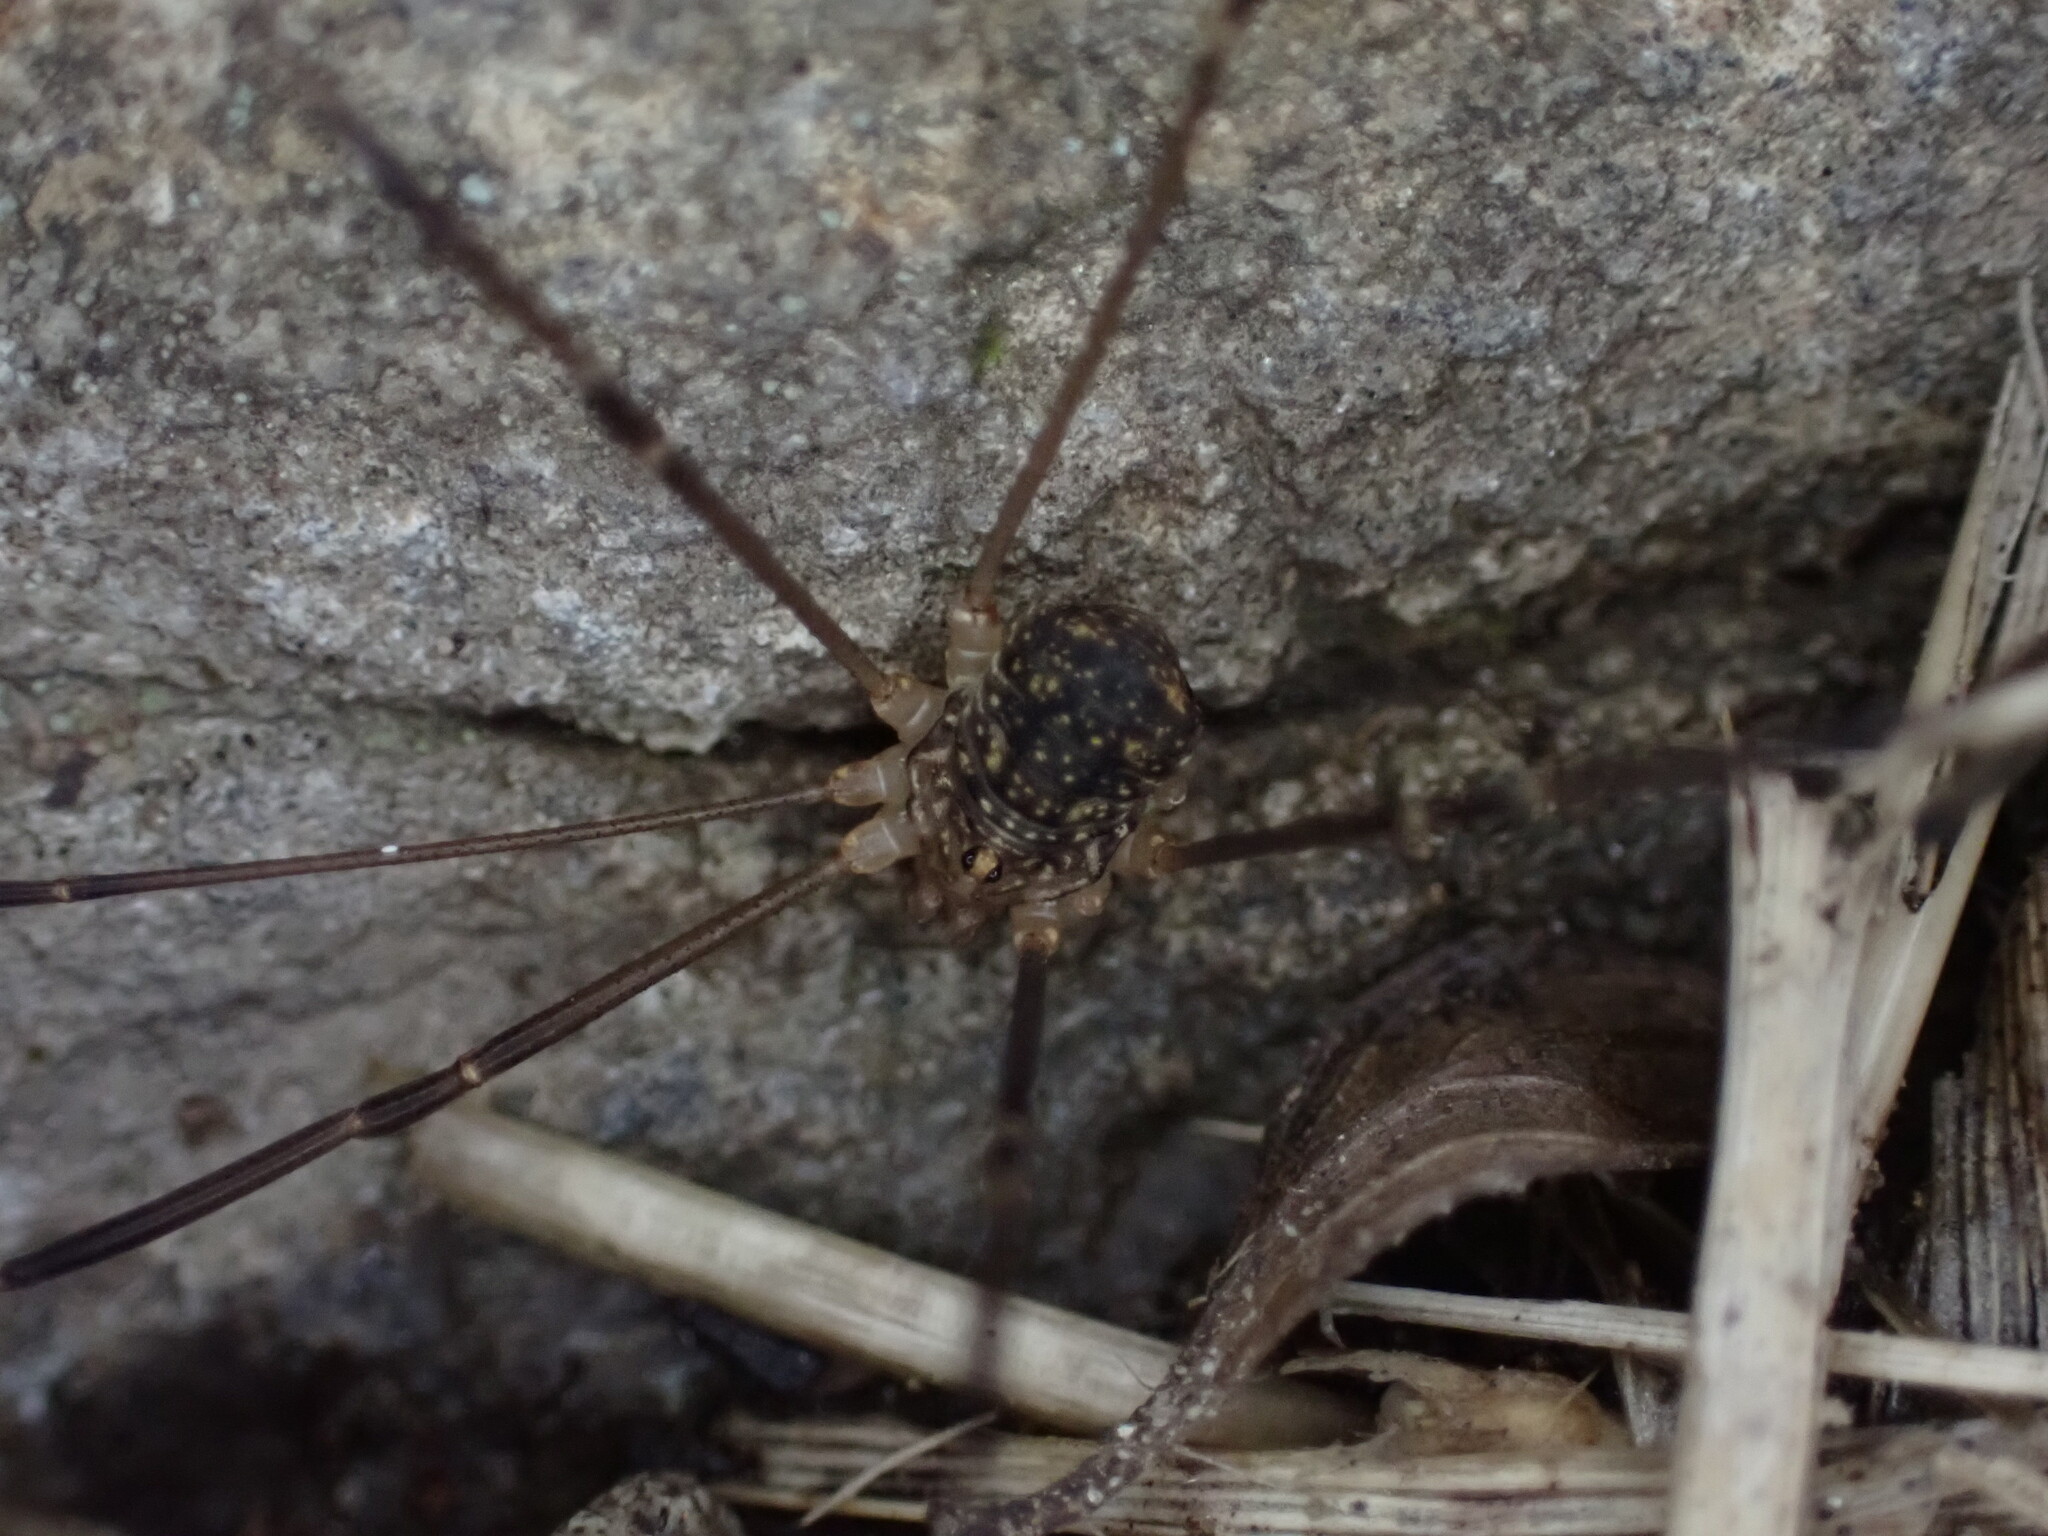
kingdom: Animalia
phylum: Arthropoda
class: Arachnida
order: Opiliones
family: Sclerosomatidae
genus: Nelima
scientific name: Nelima gothica
